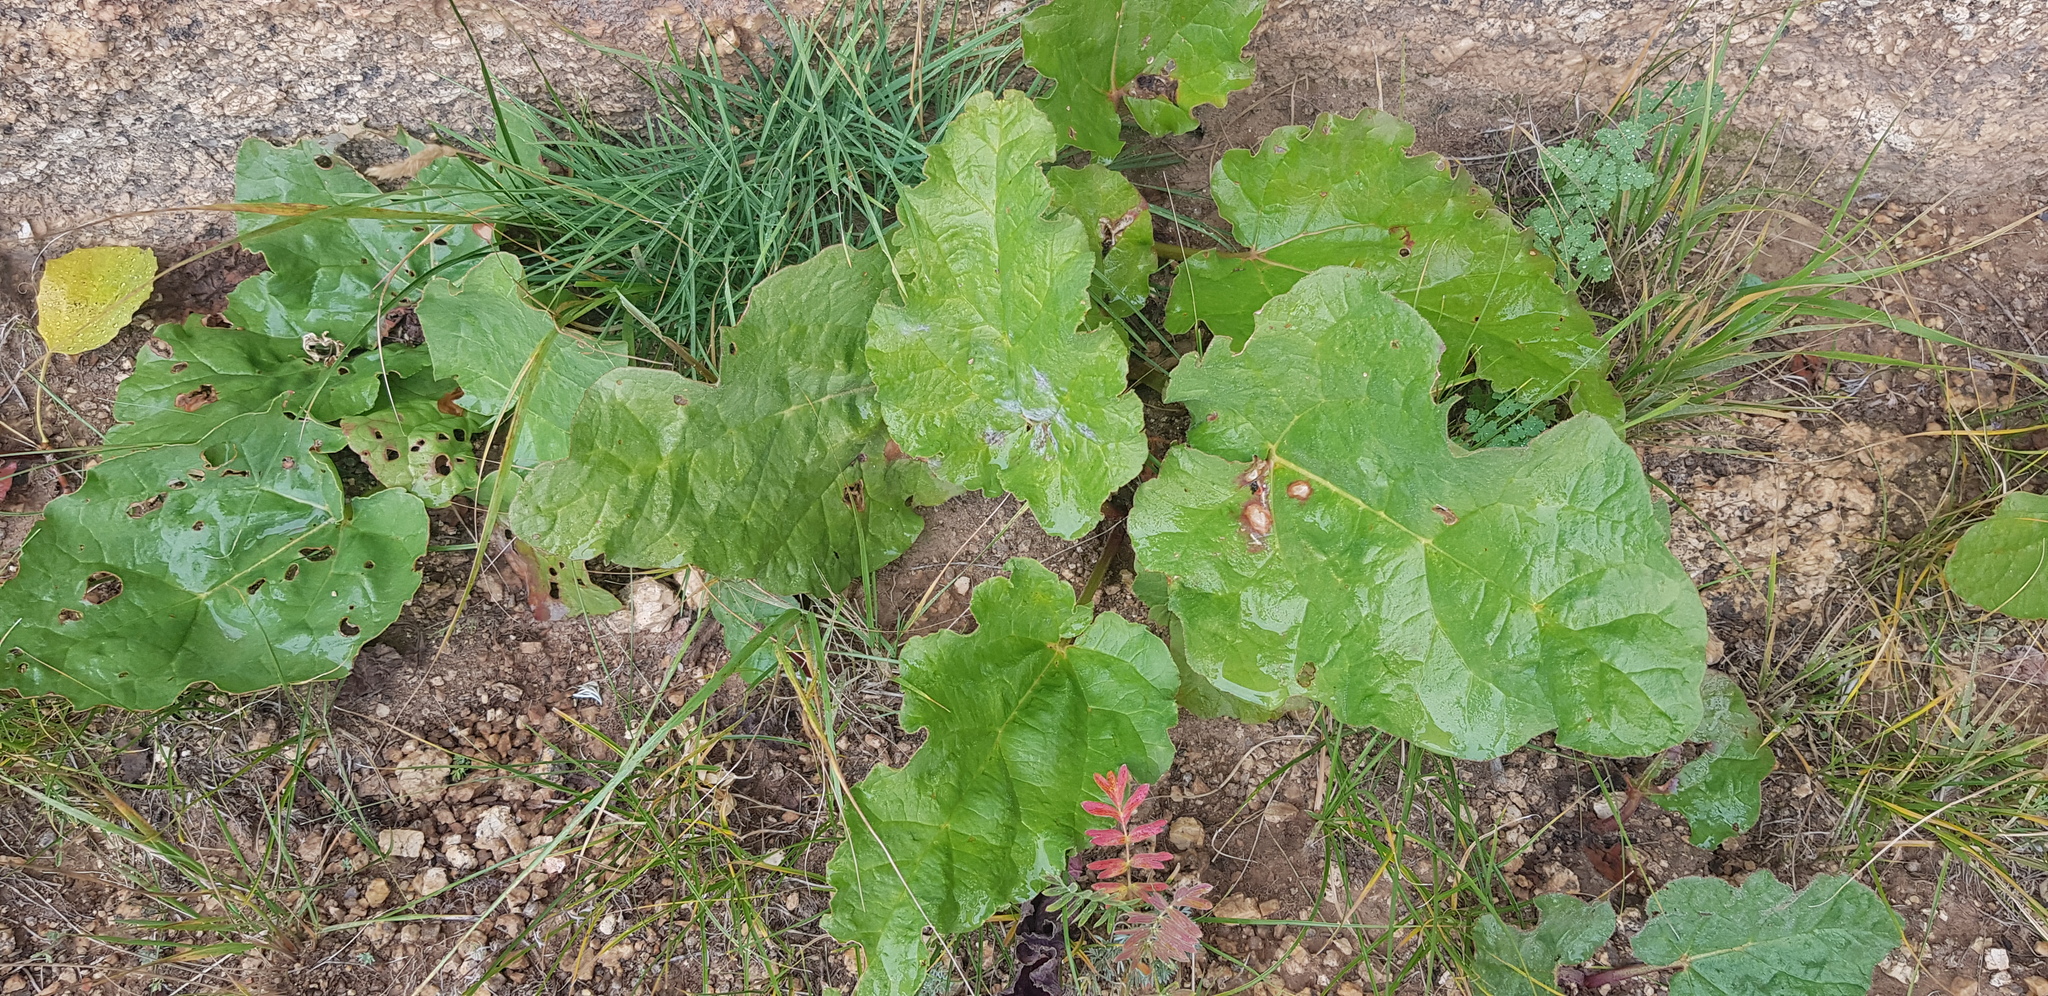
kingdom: Plantae
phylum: Tracheophyta
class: Magnoliopsida
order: Caryophyllales
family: Polygonaceae
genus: Rheum
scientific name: Rheum rhabarbarum
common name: Garden rhubarb
